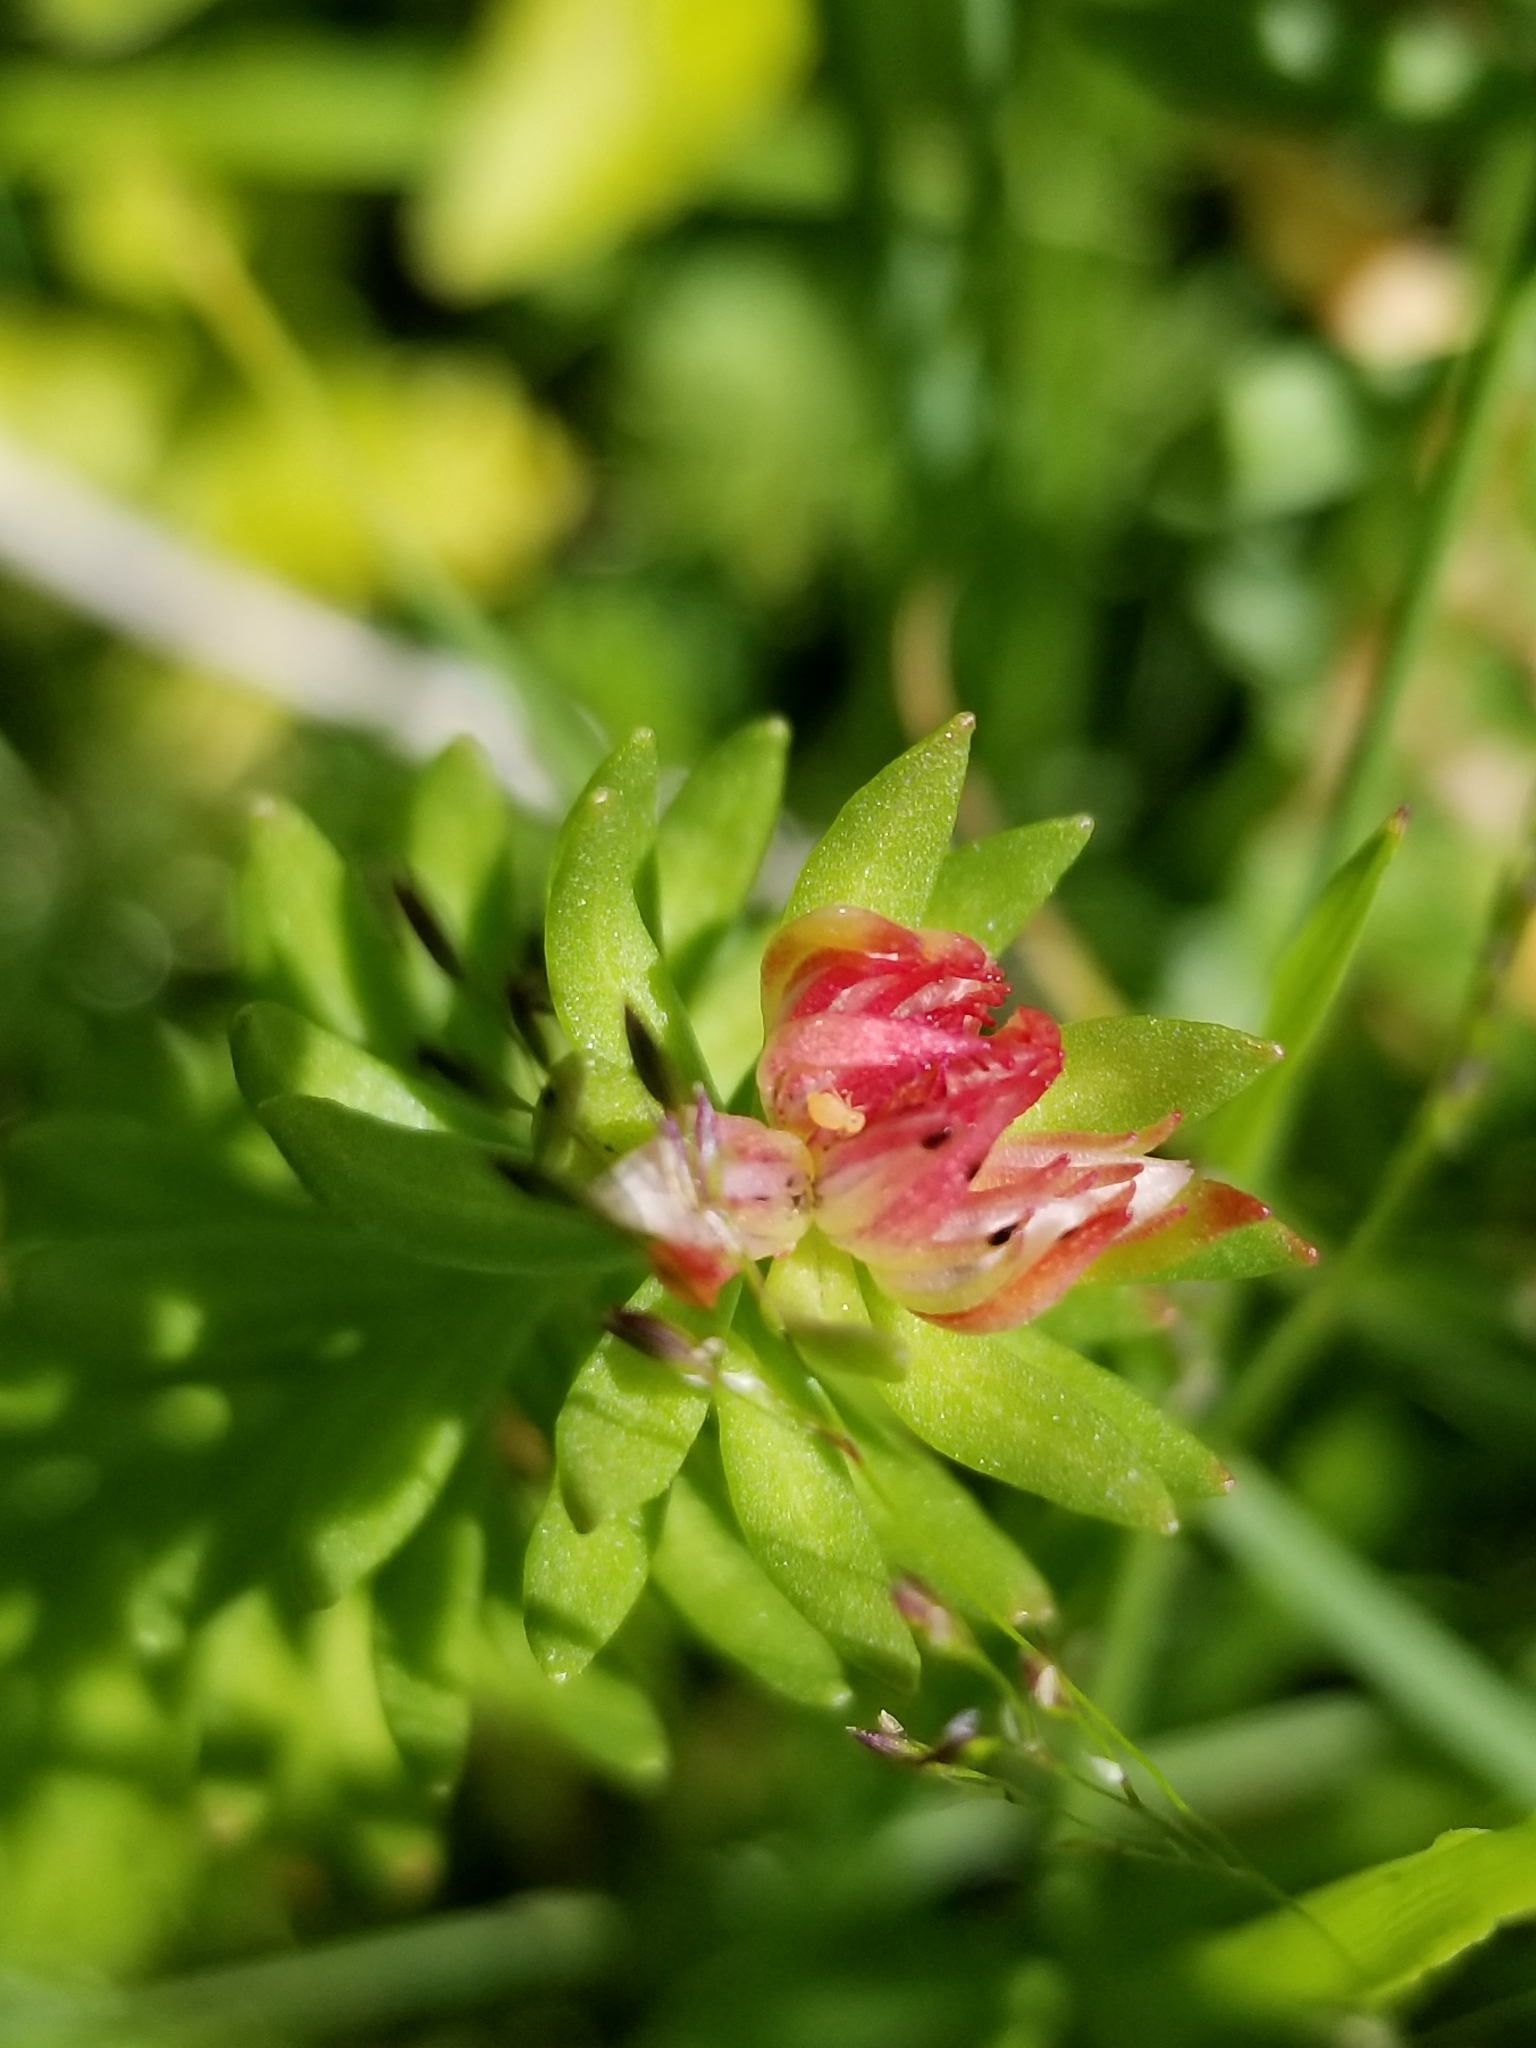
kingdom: Plantae
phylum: Tracheophyta
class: Magnoliopsida
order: Saxifragales
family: Crassulaceae
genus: Rhodiola
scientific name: Rhodiola rhodantha
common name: Red orpine
